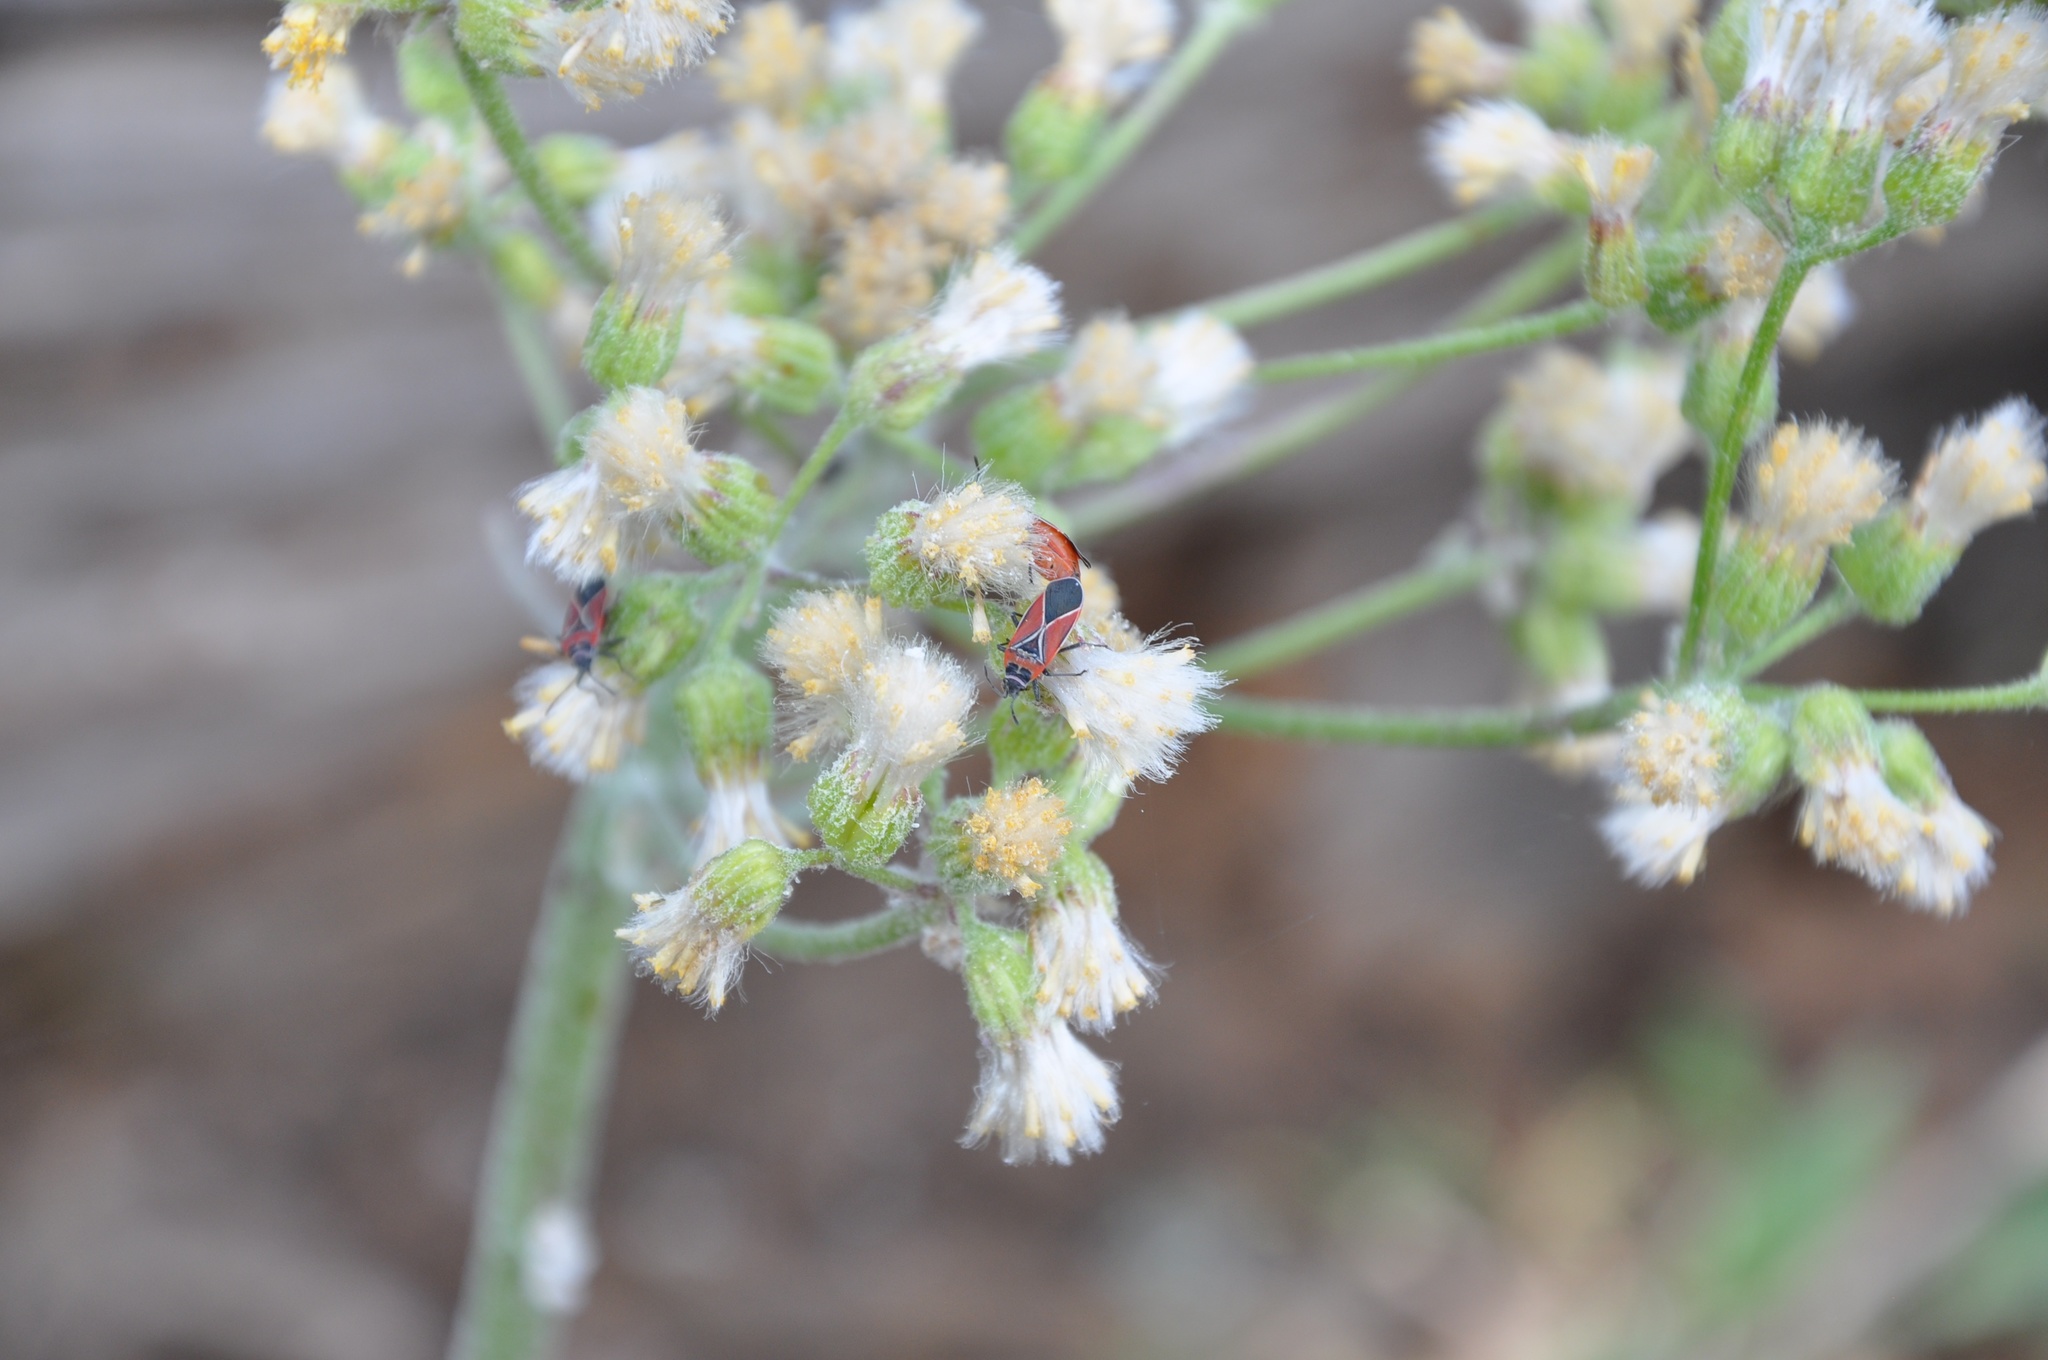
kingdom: Animalia
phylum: Arthropoda
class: Insecta
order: Hemiptera
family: Lygaeidae
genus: Neacoryphus
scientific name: Neacoryphus bicrucis
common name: Lygaeid bug
